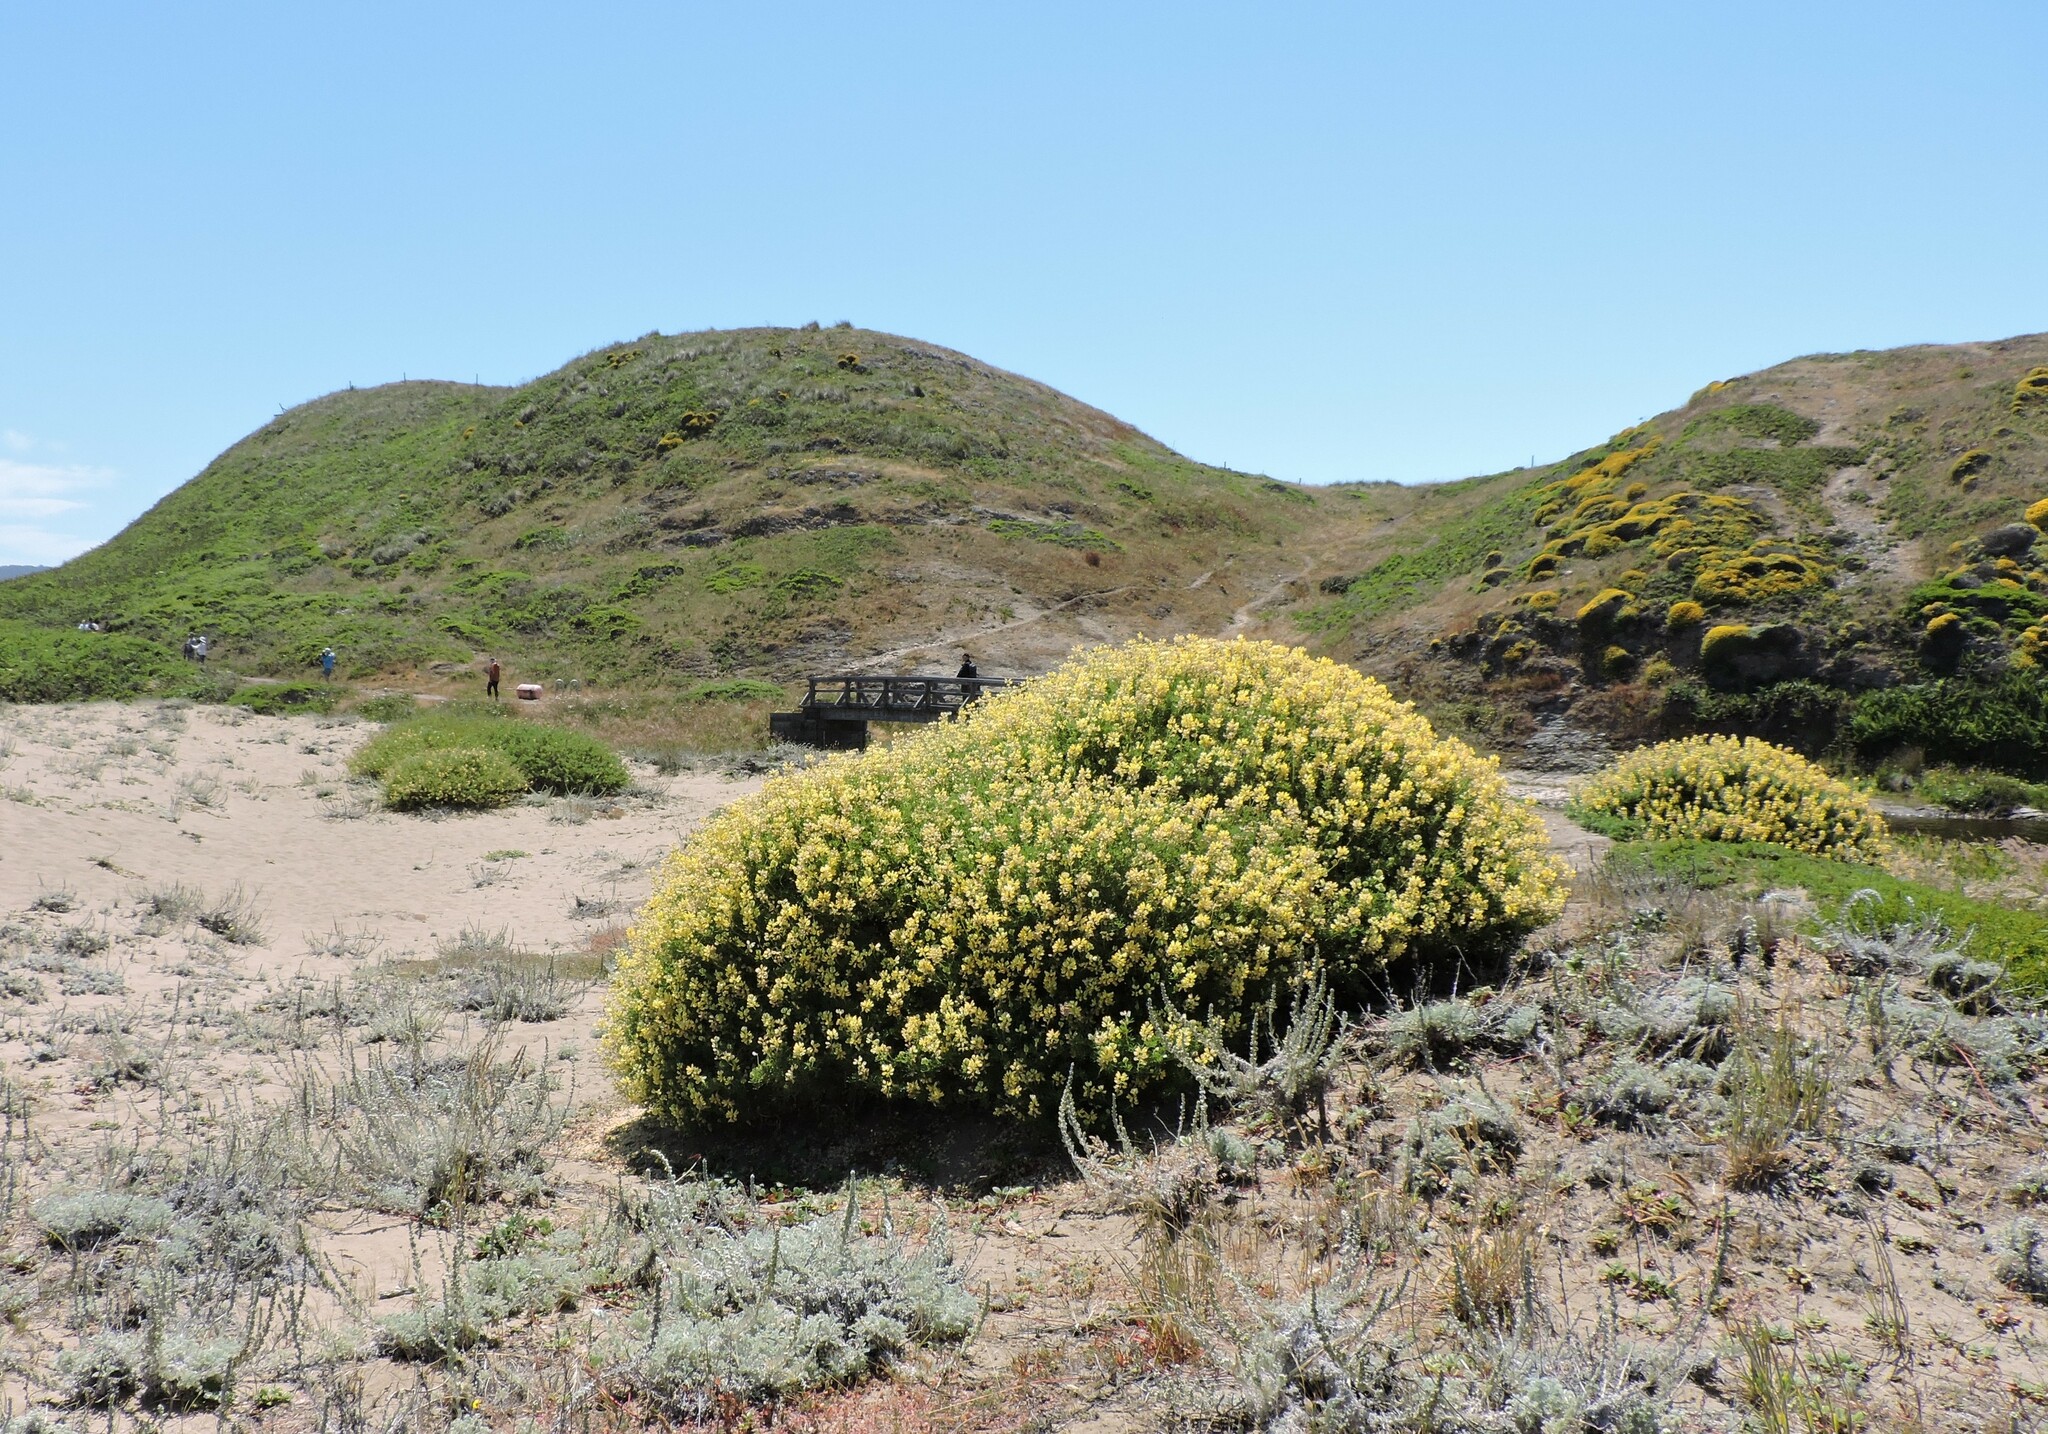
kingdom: Plantae
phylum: Tracheophyta
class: Magnoliopsida
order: Fabales
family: Fabaceae
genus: Lupinus
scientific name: Lupinus arboreus
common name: Yellow bush lupine
